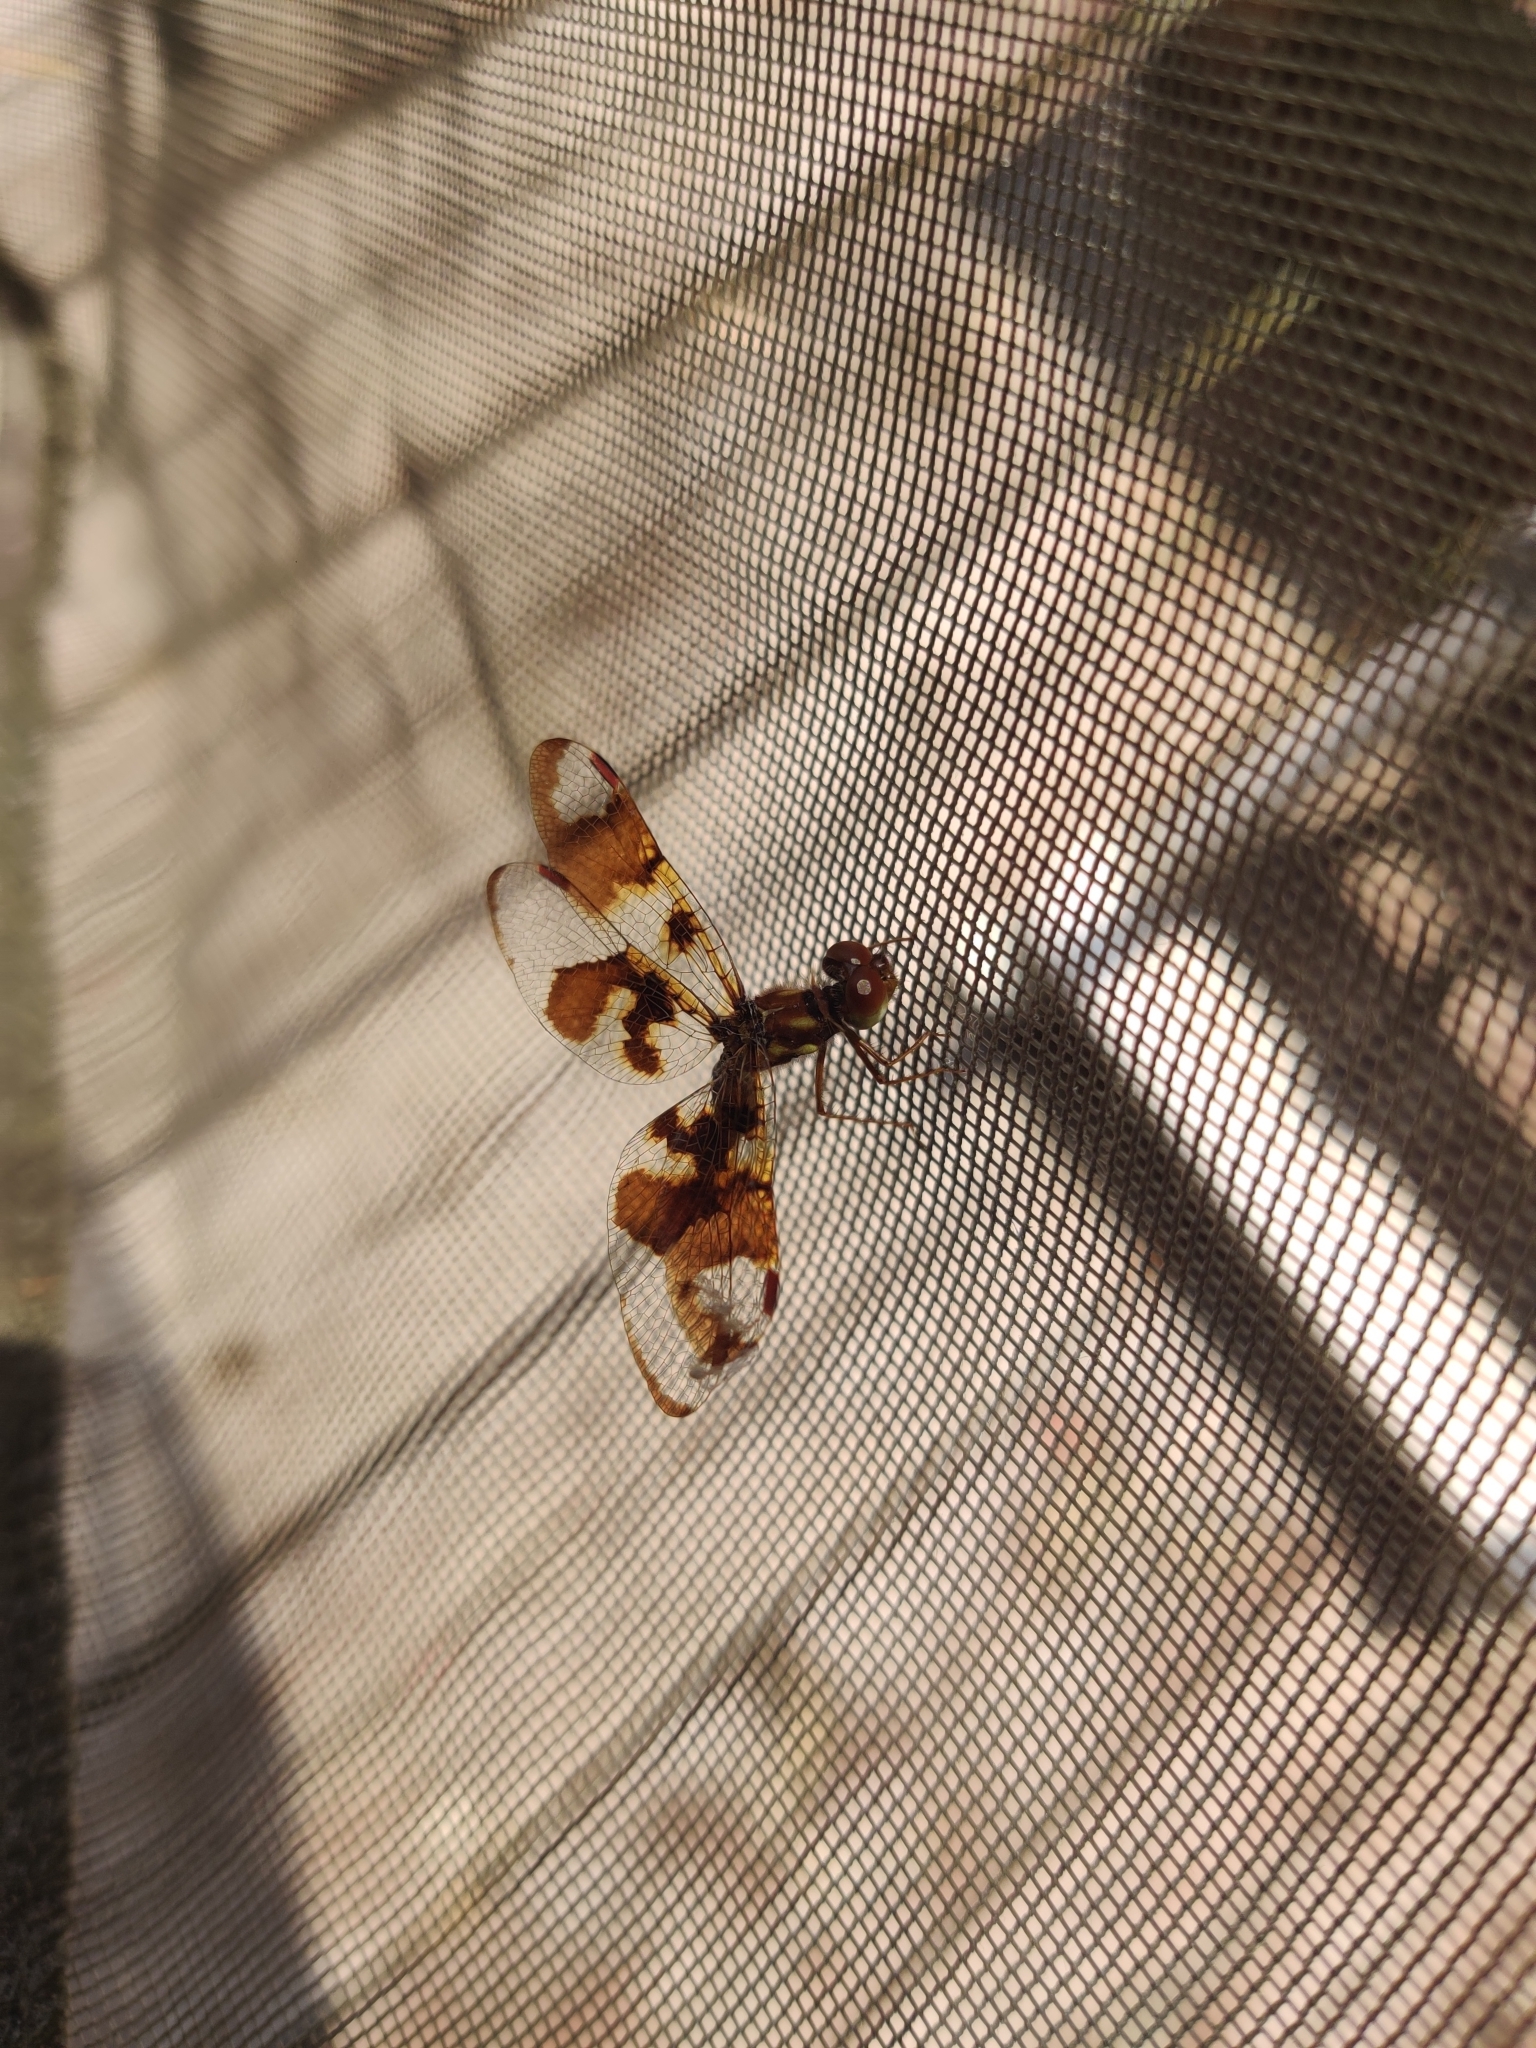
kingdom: Animalia
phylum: Arthropoda
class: Insecta
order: Odonata
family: Libellulidae
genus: Perithemis
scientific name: Perithemis tenera
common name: Eastern amberwing
